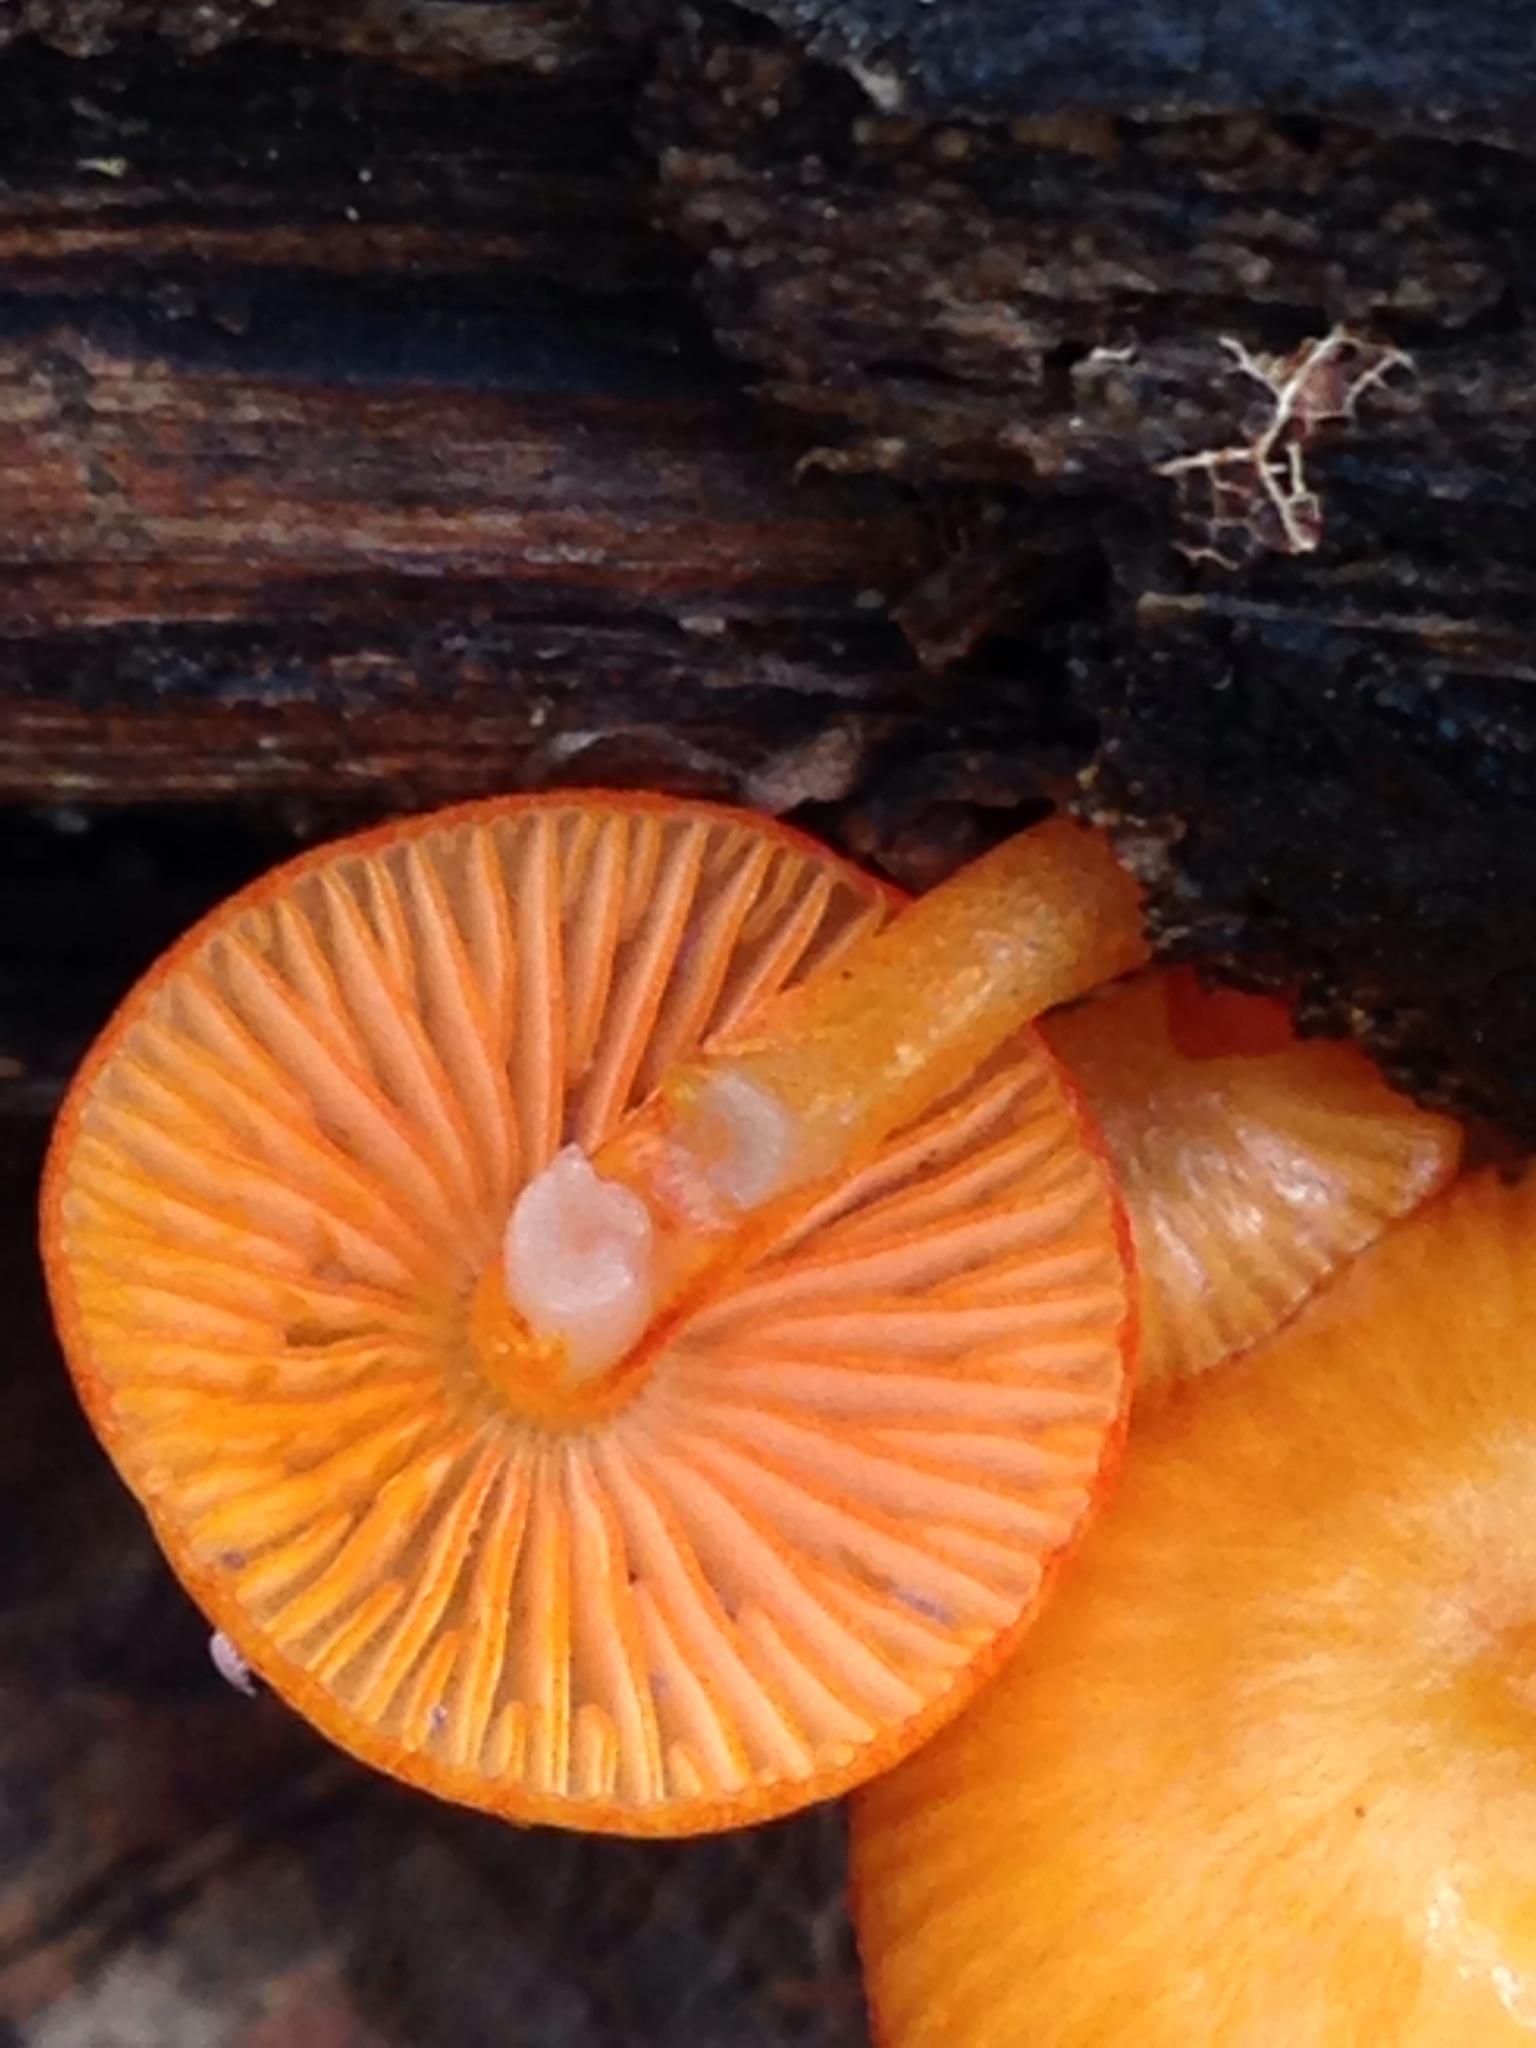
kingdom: Fungi
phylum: Basidiomycota
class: Agaricomycetes
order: Agaricales
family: Mycenaceae
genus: Mycena
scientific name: Mycena leaiana
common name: Orange mycena
